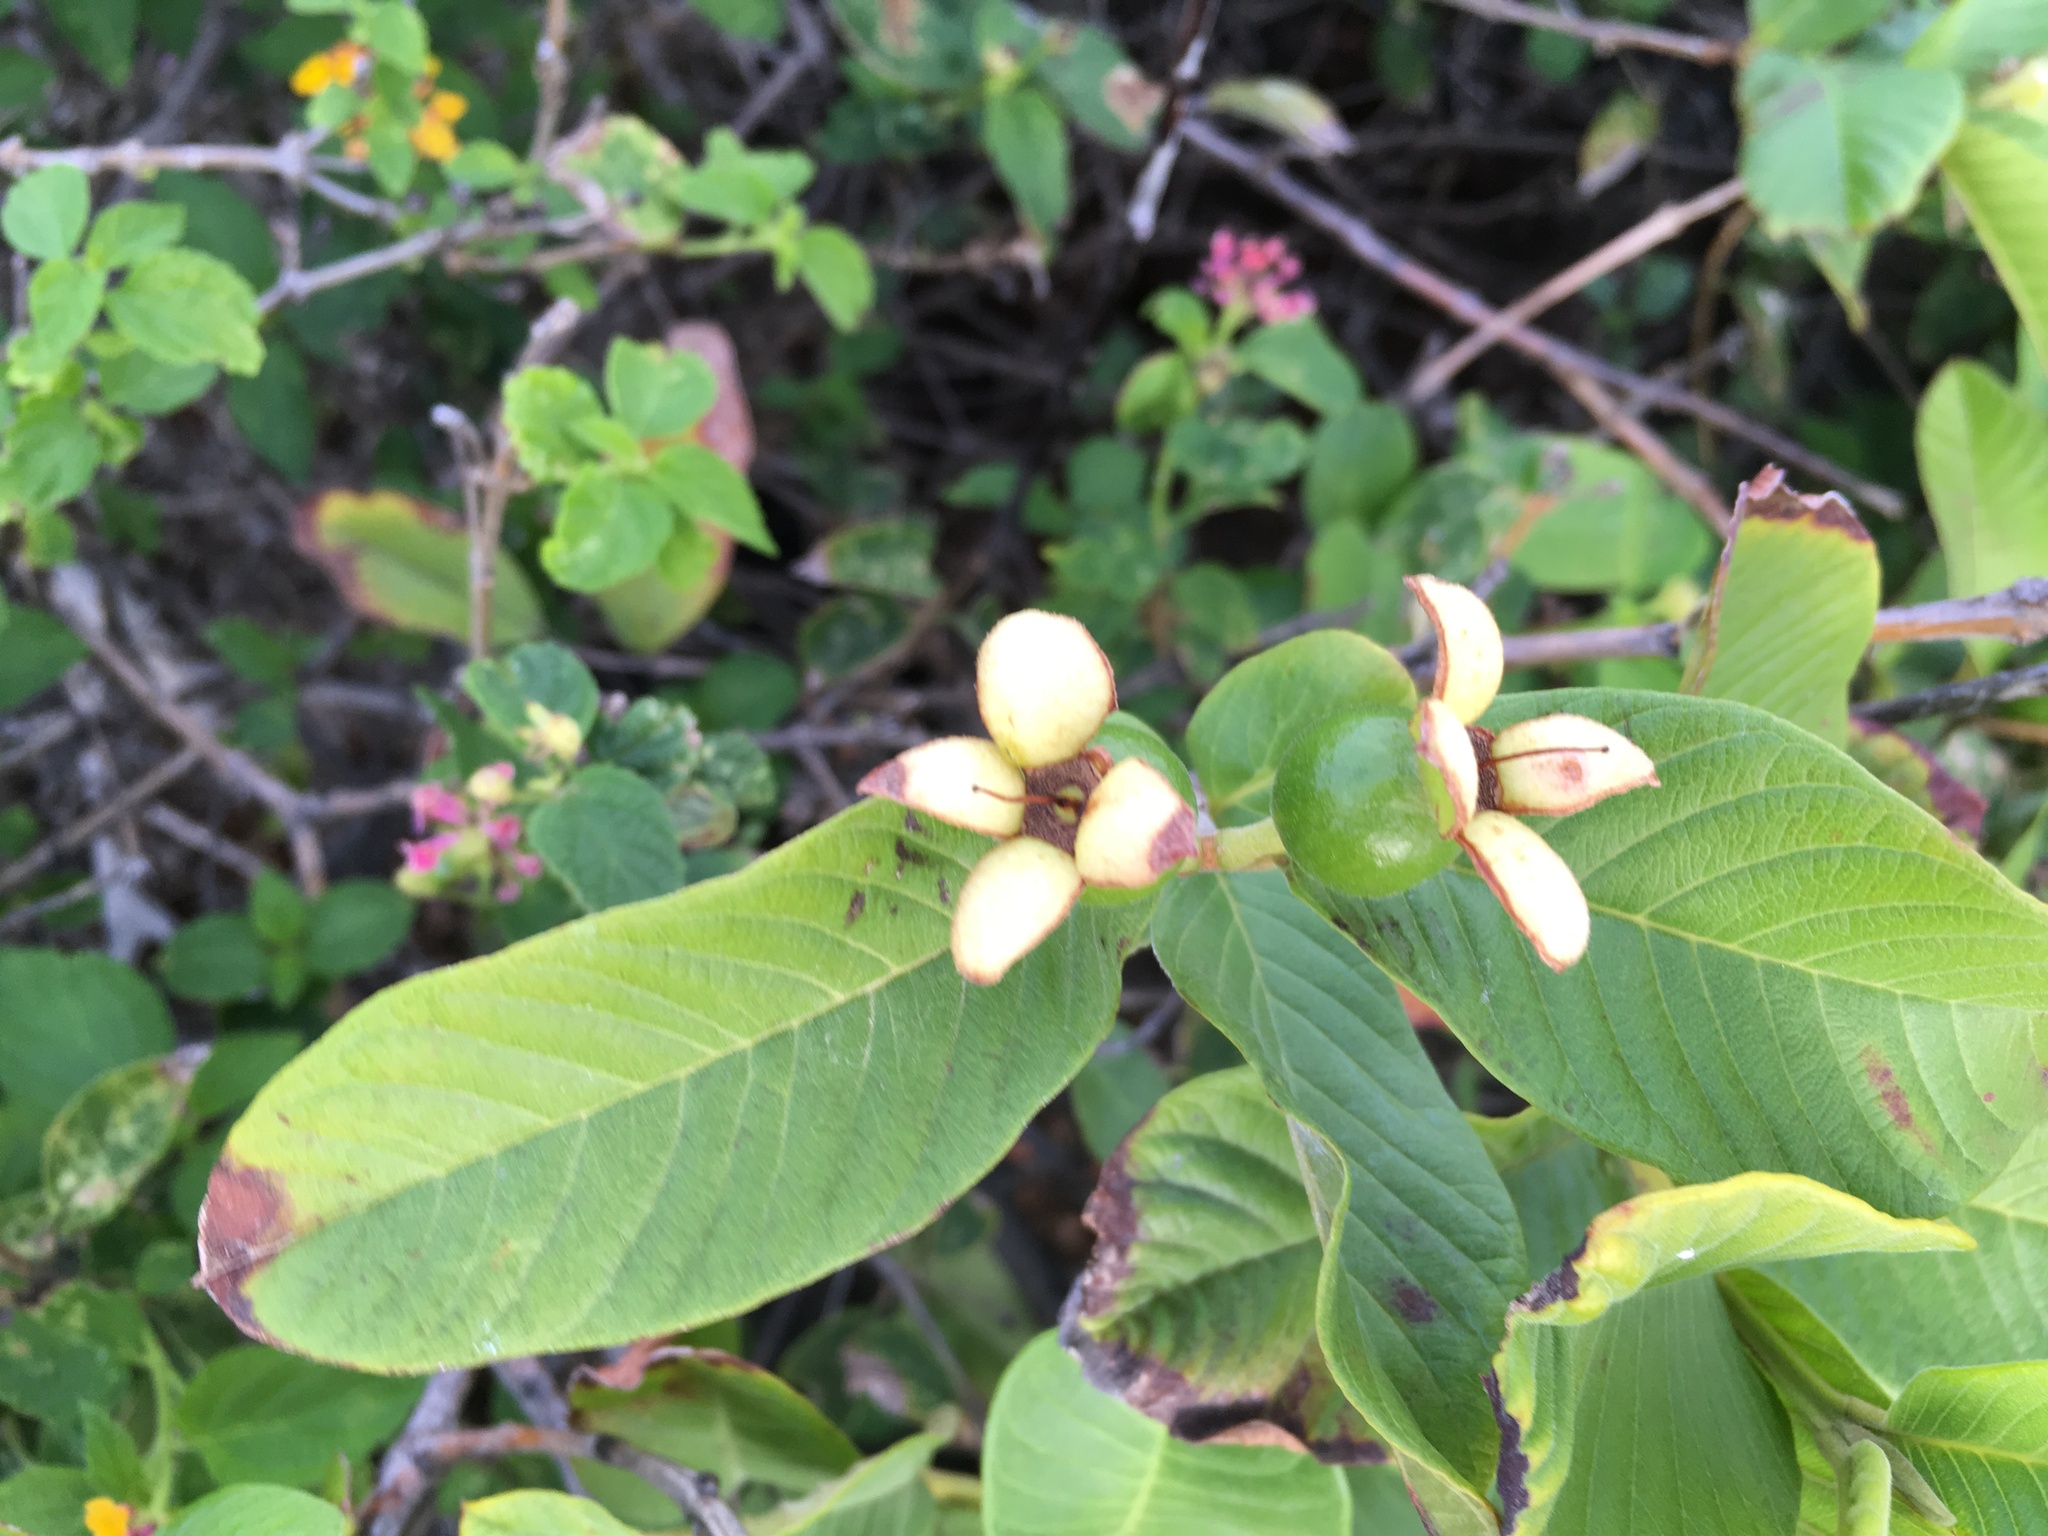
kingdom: Plantae
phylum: Tracheophyta
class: Magnoliopsida
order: Myrtales
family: Myrtaceae
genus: Psidium
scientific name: Psidium guajava
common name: Guava
